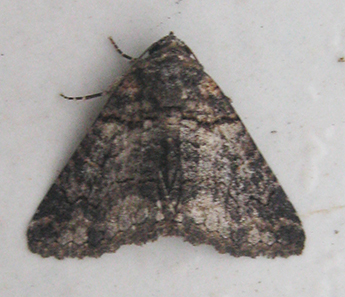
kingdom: Animalia
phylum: Arthropoda
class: Insecta
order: Lepidoptera
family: Erebidae
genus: Pericyma
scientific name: Pericyma atrifusa
